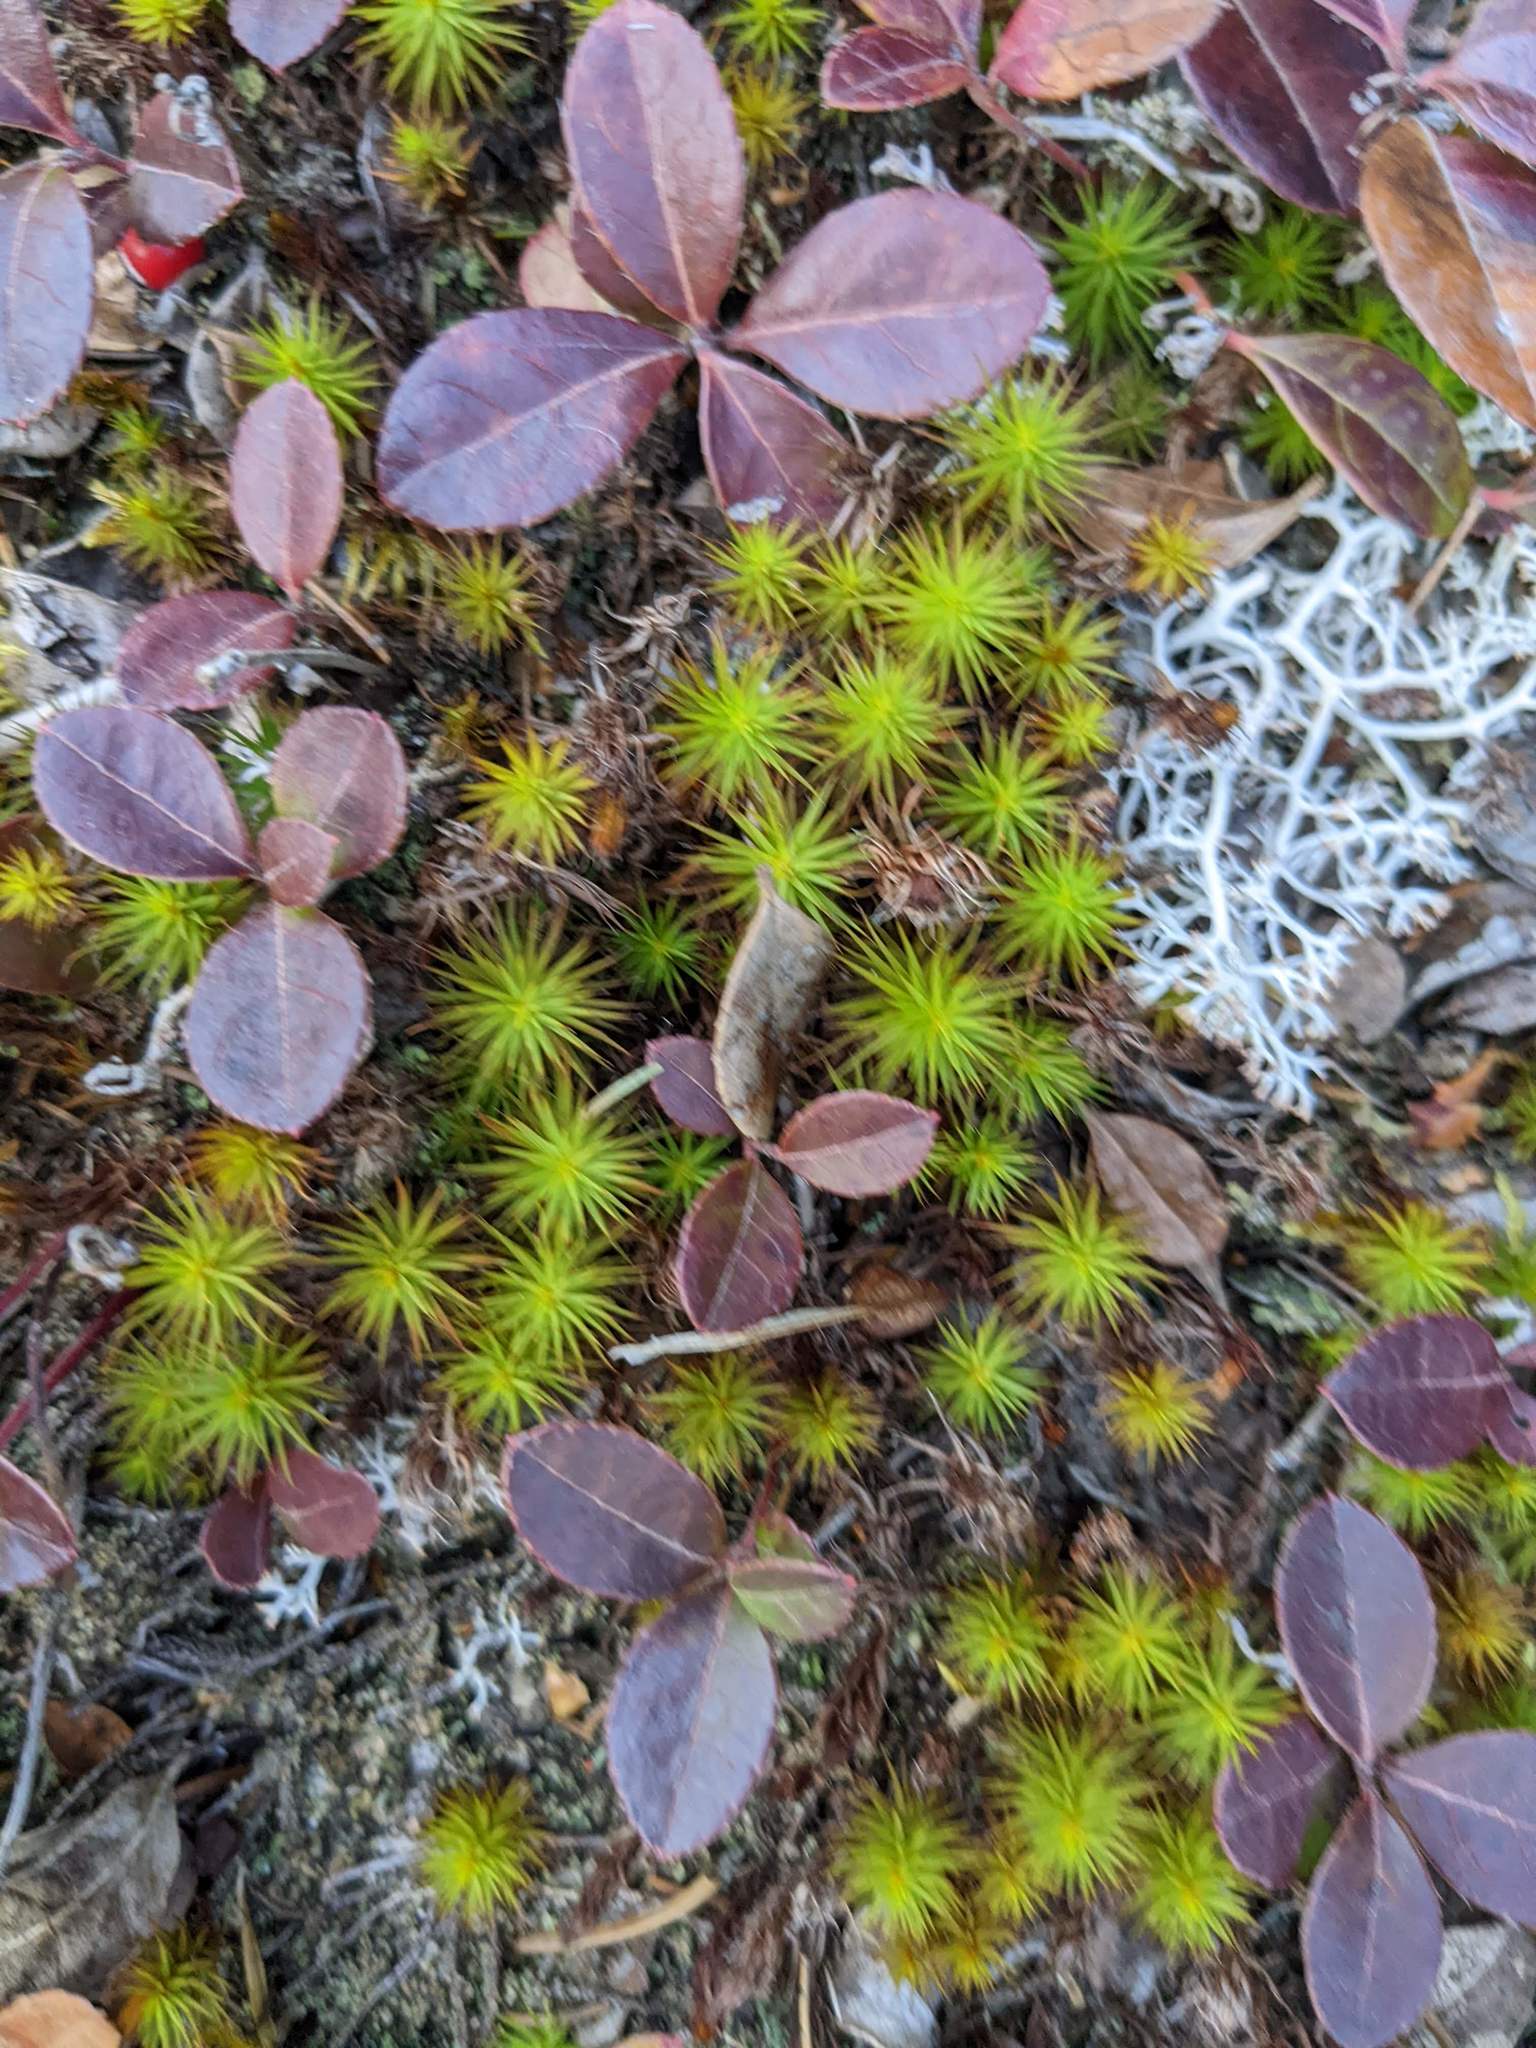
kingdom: Plantae
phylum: Tracheophyta
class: Magnoliopsida
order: Ericales
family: Ericaceae
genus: Gaultheria
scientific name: Gaultheria procumbens
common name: Checkerberry
